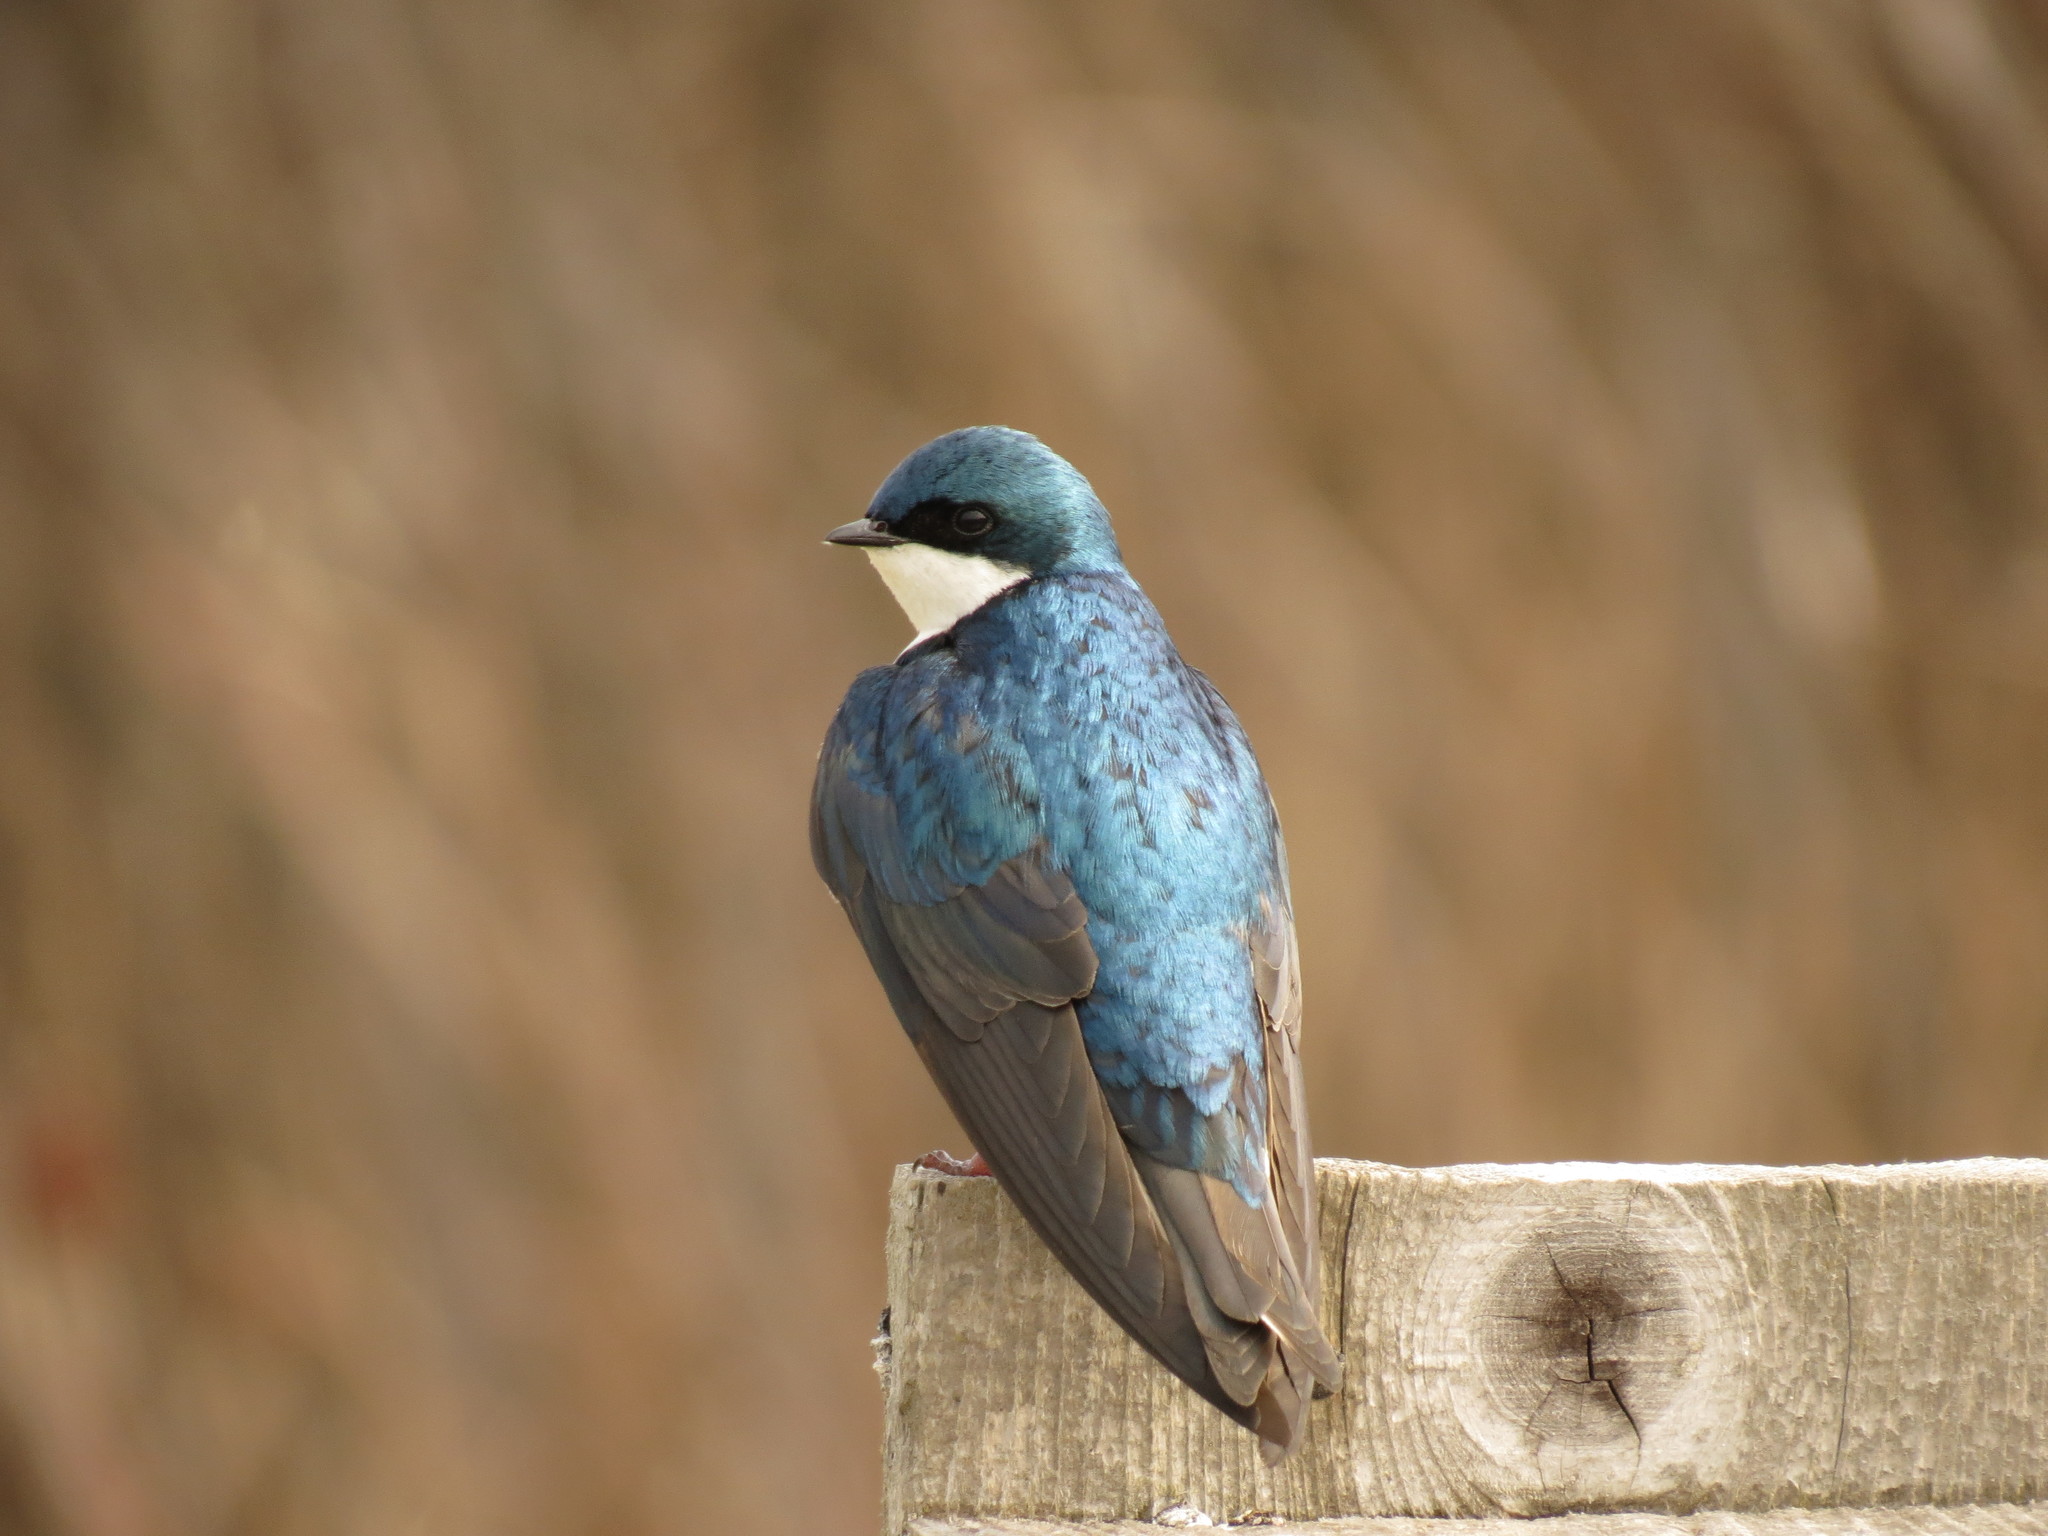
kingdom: Animalia
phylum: Chordata
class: Aves
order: Passeriformes
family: Hirundinidae
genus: Tachycineta
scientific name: Tachycineta bicolor
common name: Tree swallow
